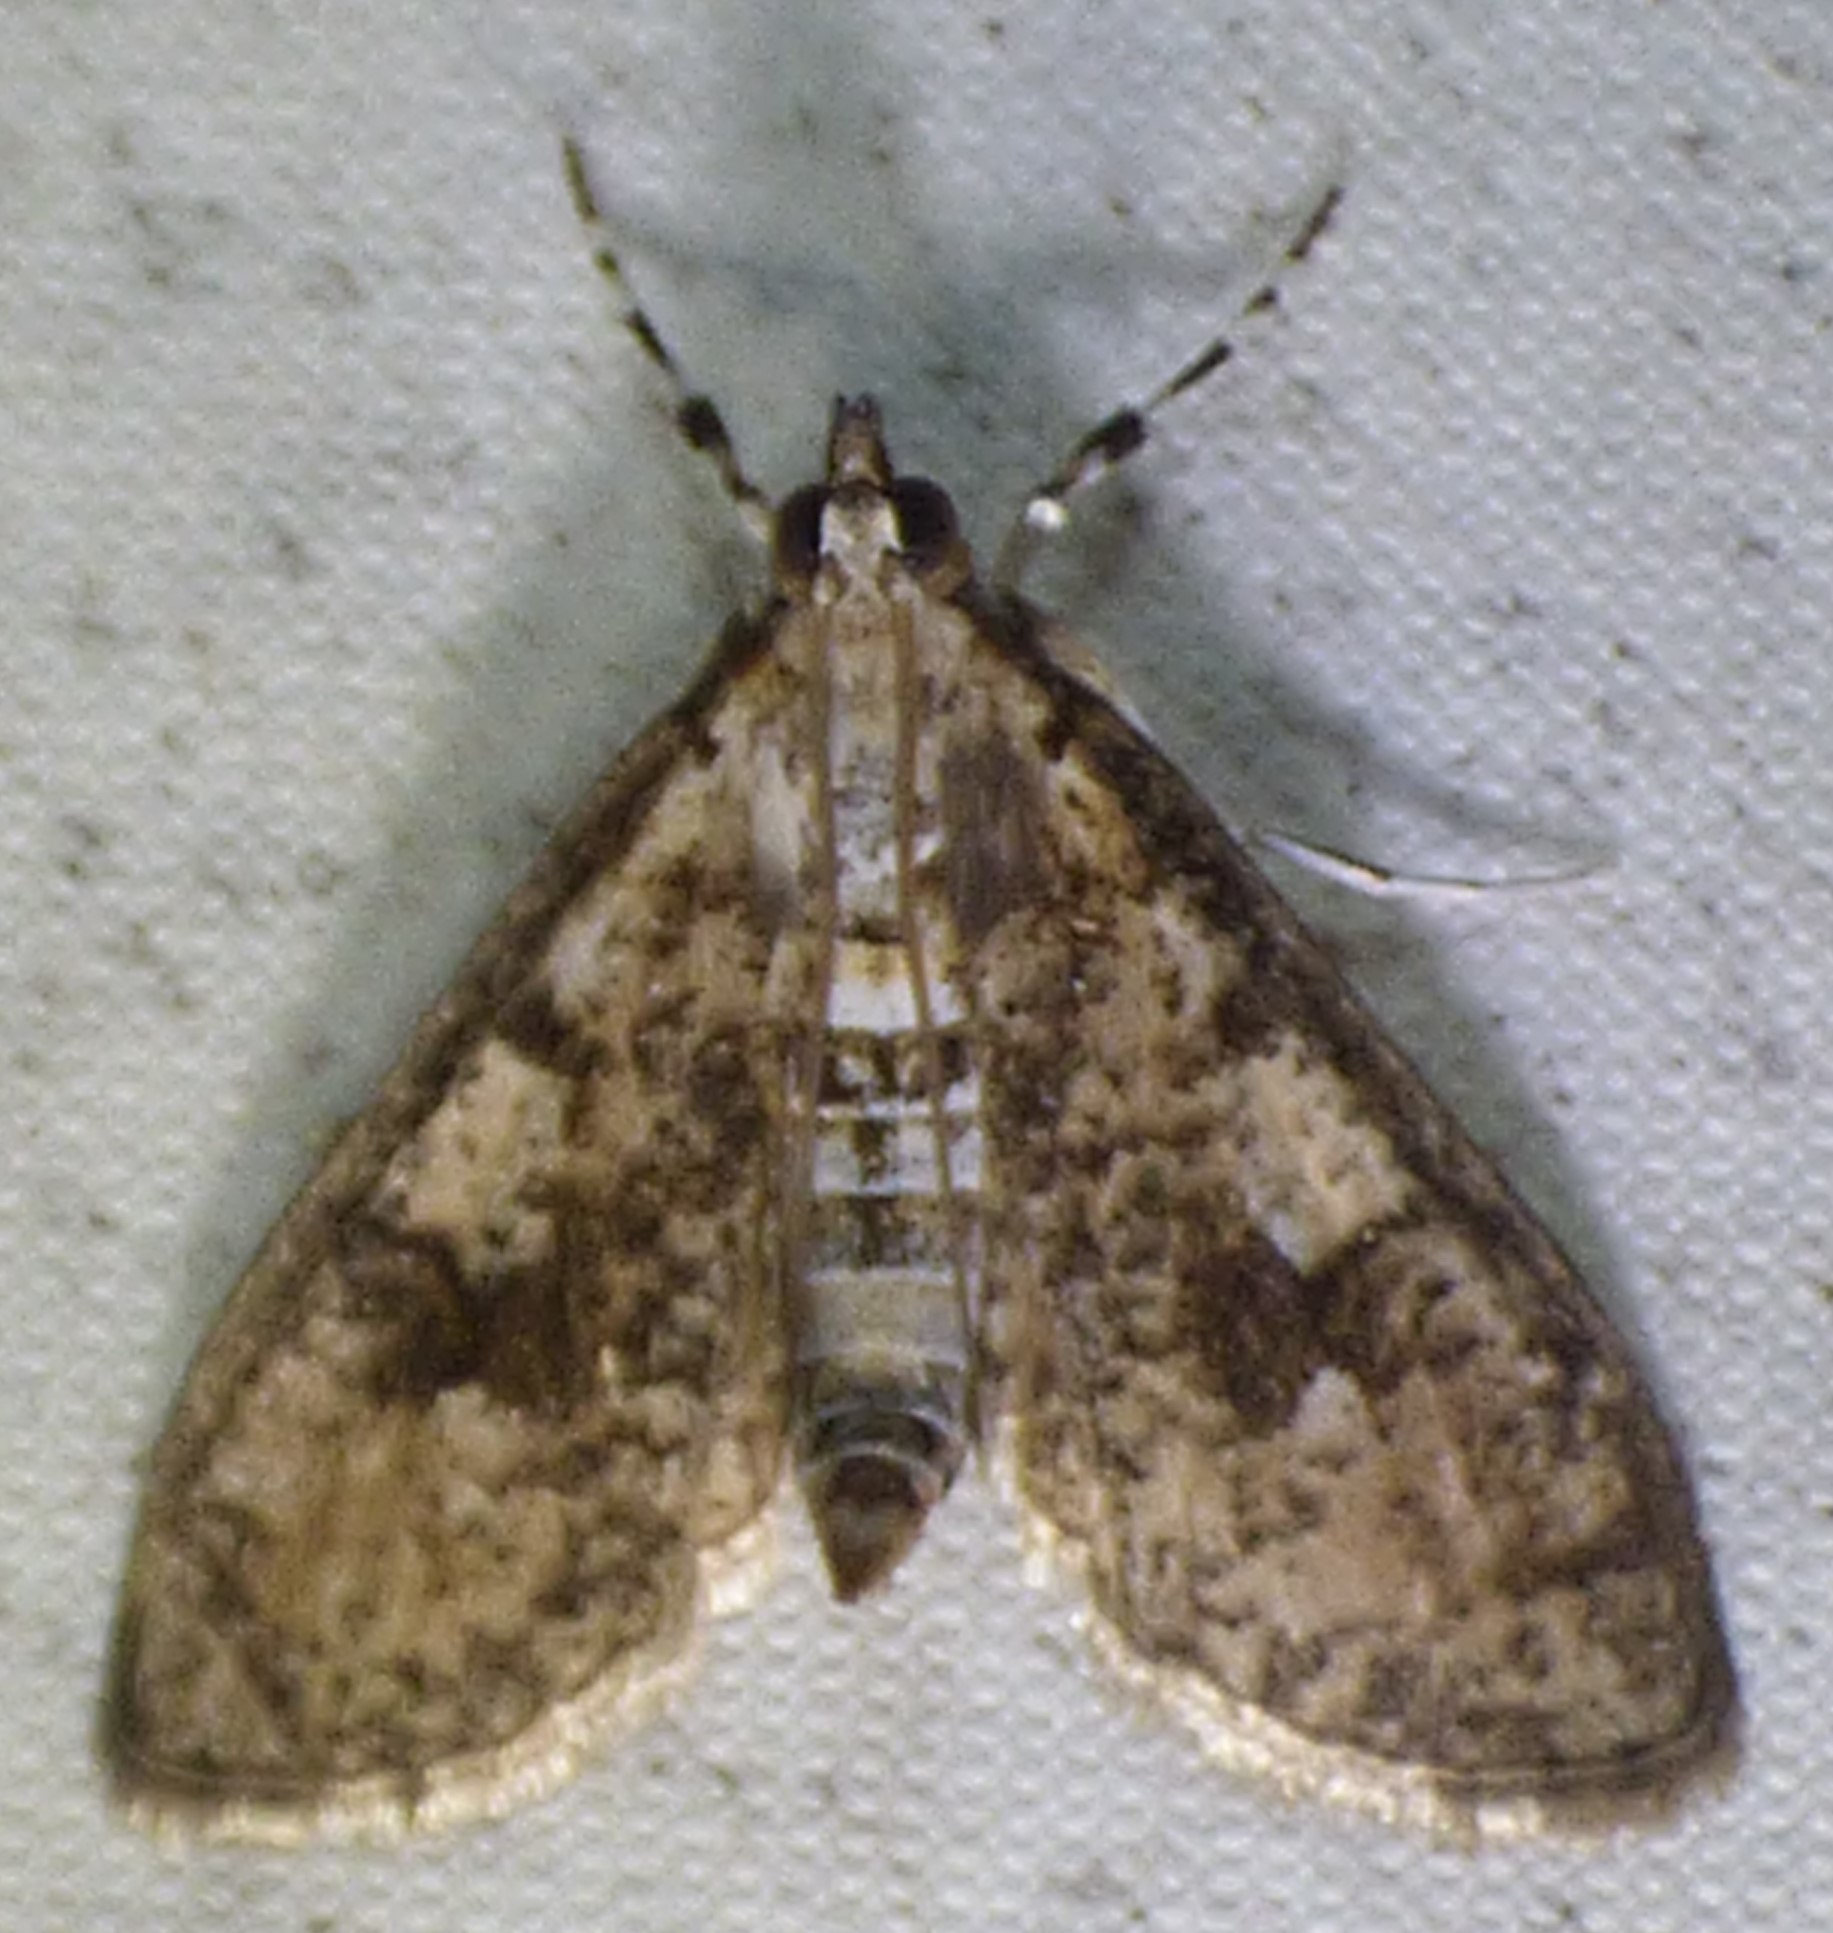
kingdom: Animalia
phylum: Arthropoda
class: Insecta
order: Lepidoptera
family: Crambidae
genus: Palpita
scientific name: Palpita magniferalis
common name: Splendid palpita moth
